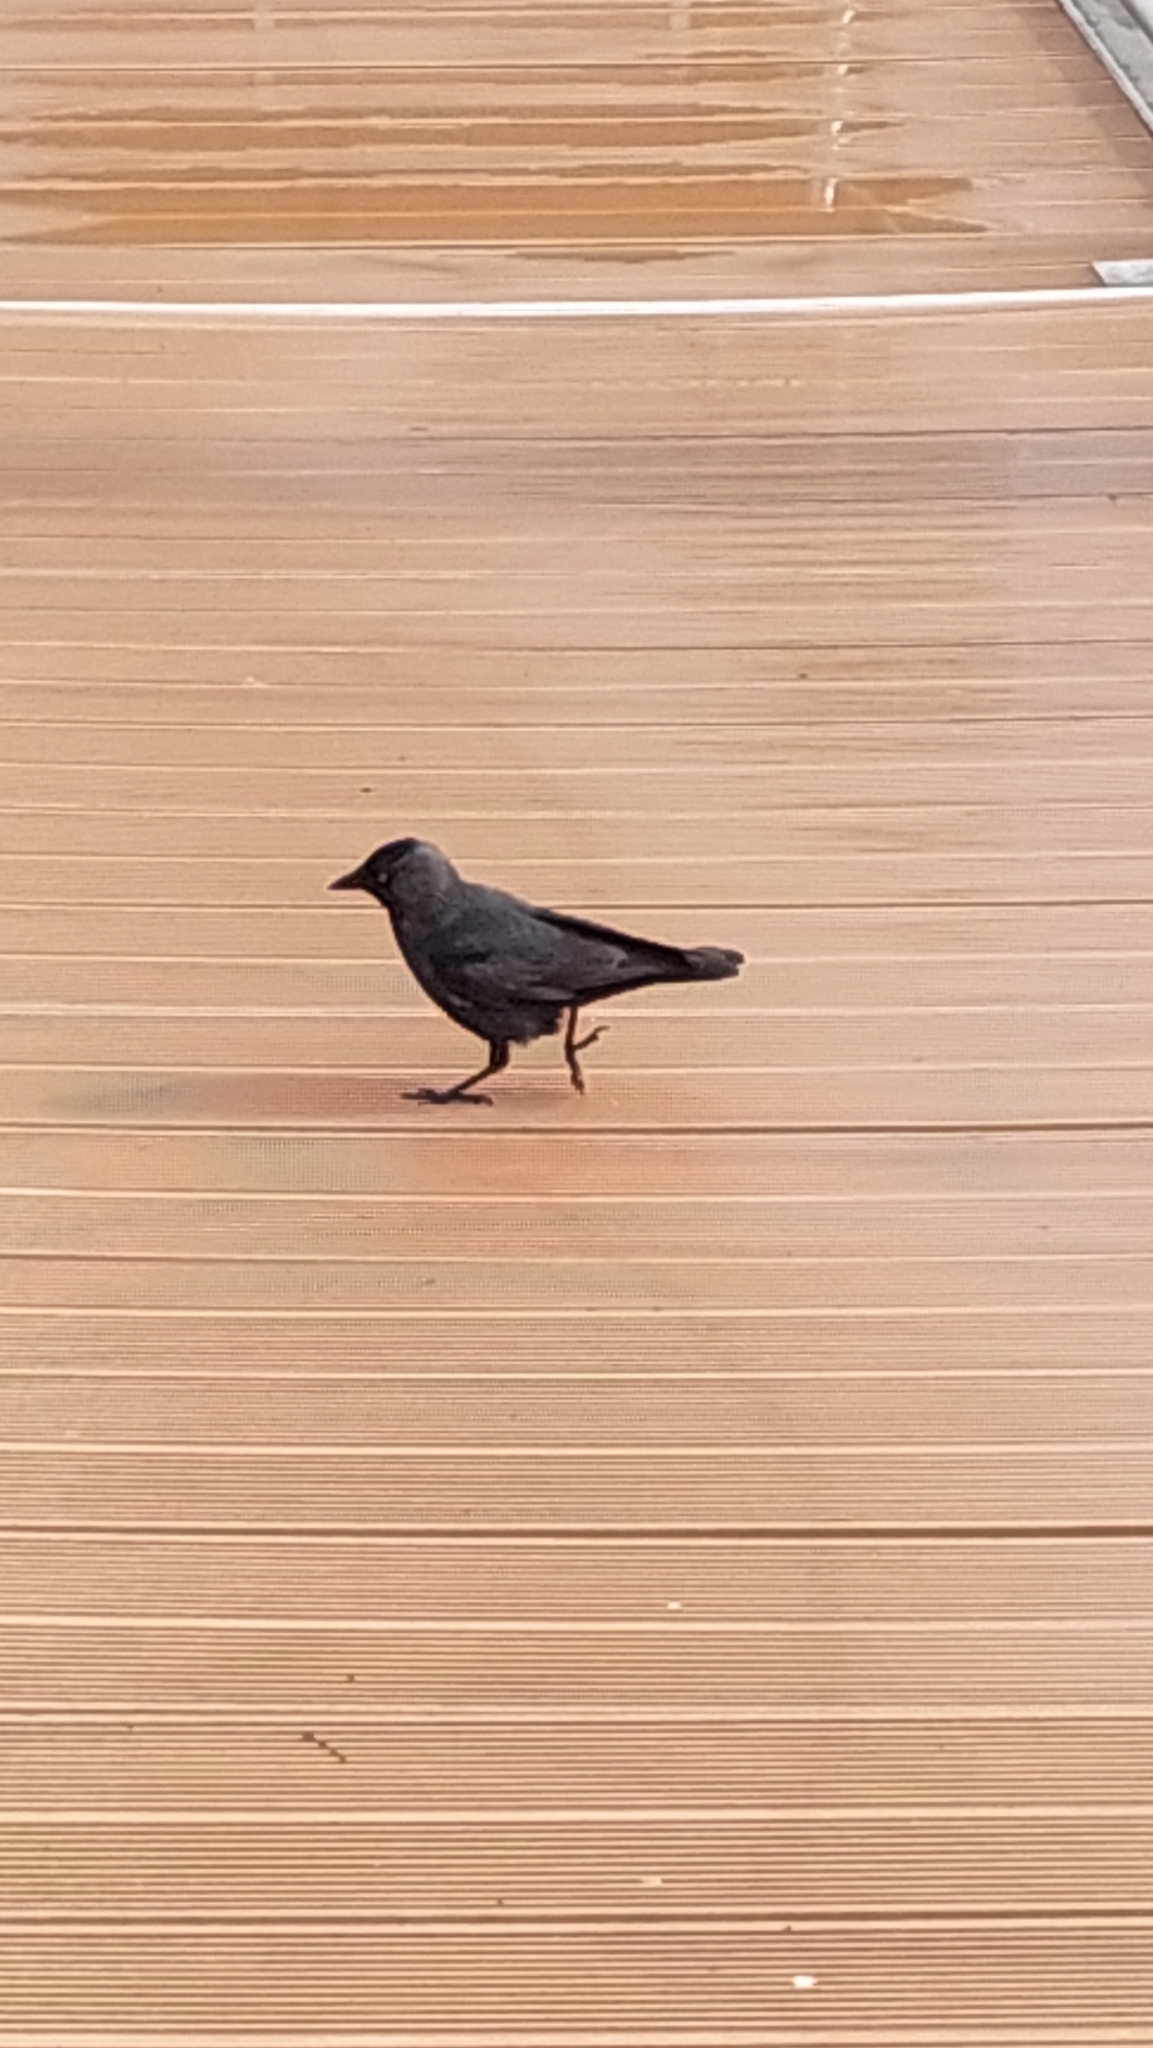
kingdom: Animalia
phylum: Chordata
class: Aves
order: Passeriformes
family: Corvidae
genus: Coloeus
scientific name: Coloeus monedula
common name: Western jackdaw
